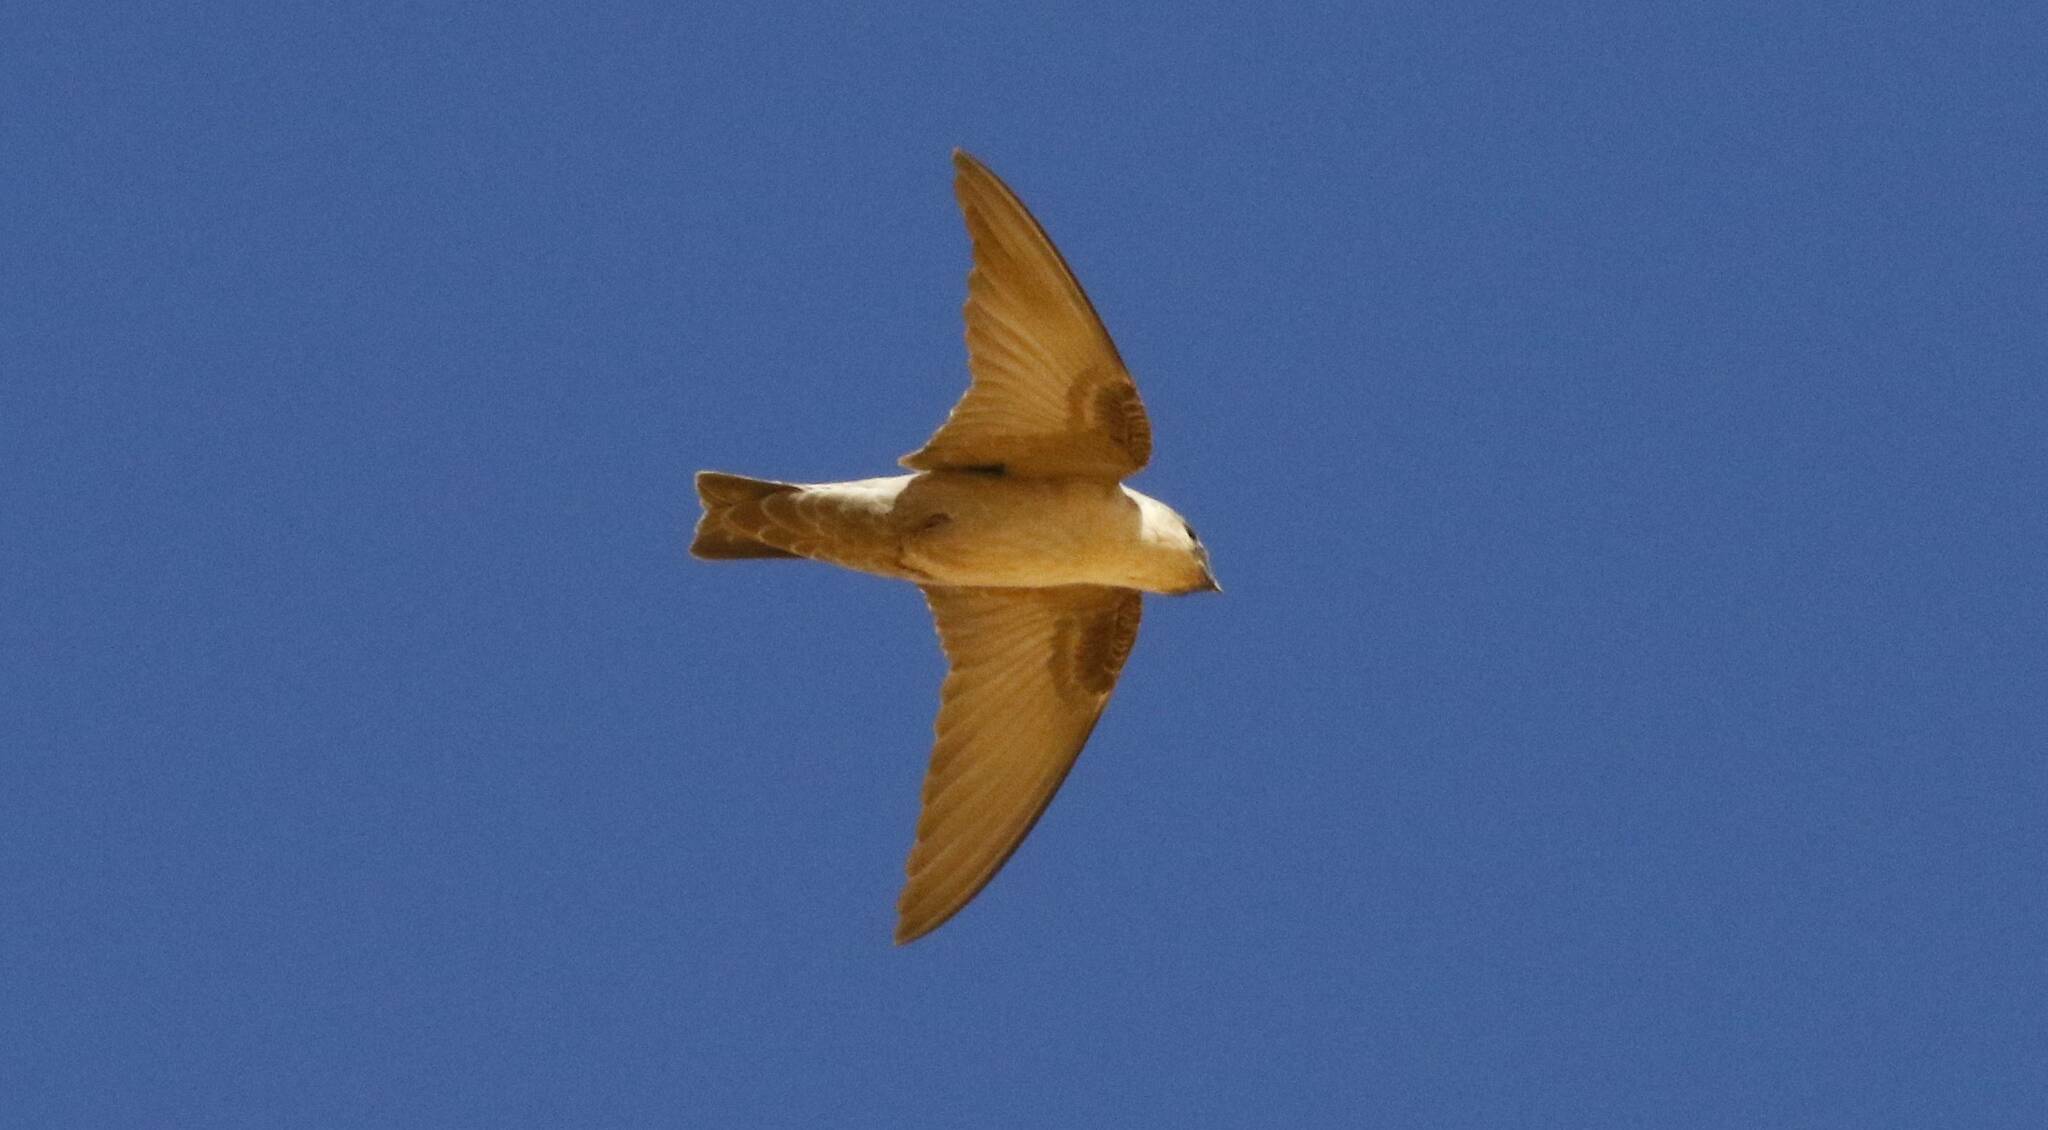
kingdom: Animalia
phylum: Chordata
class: Aves
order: Passeriformes
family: Hirundinidae
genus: Ptyonoprogne
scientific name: Ptyonoprogne fuligula
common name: Rock martin
